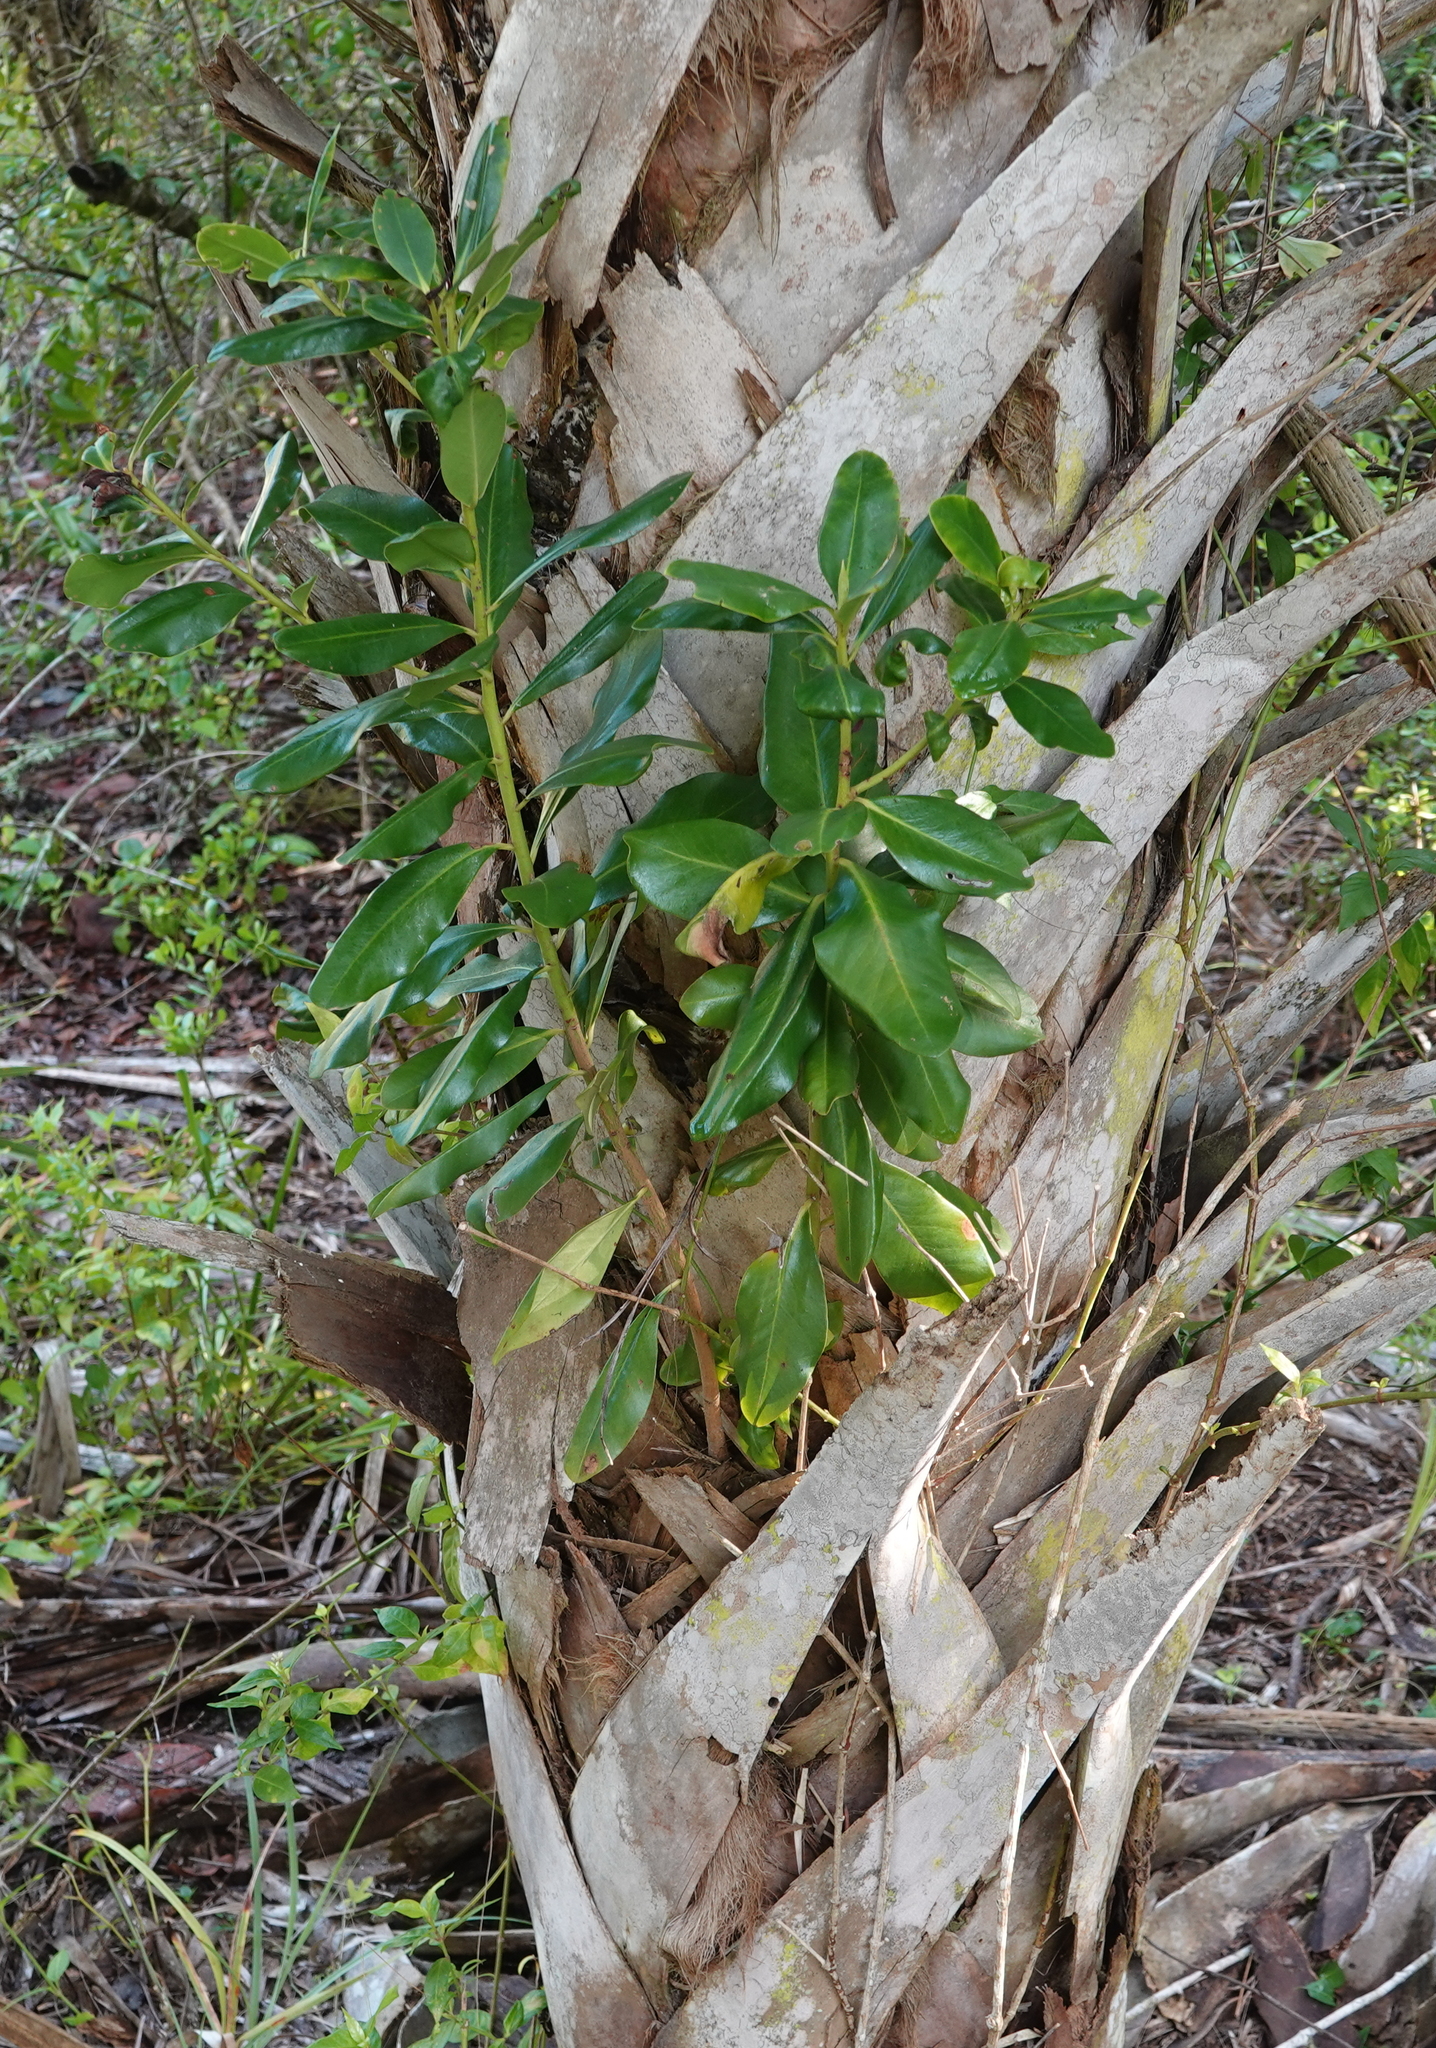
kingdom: Plantae
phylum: Tracheophyta
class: Magnoliopsida
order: Ericales
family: Primulaceae
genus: Myrsine
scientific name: Myrsine floridana
